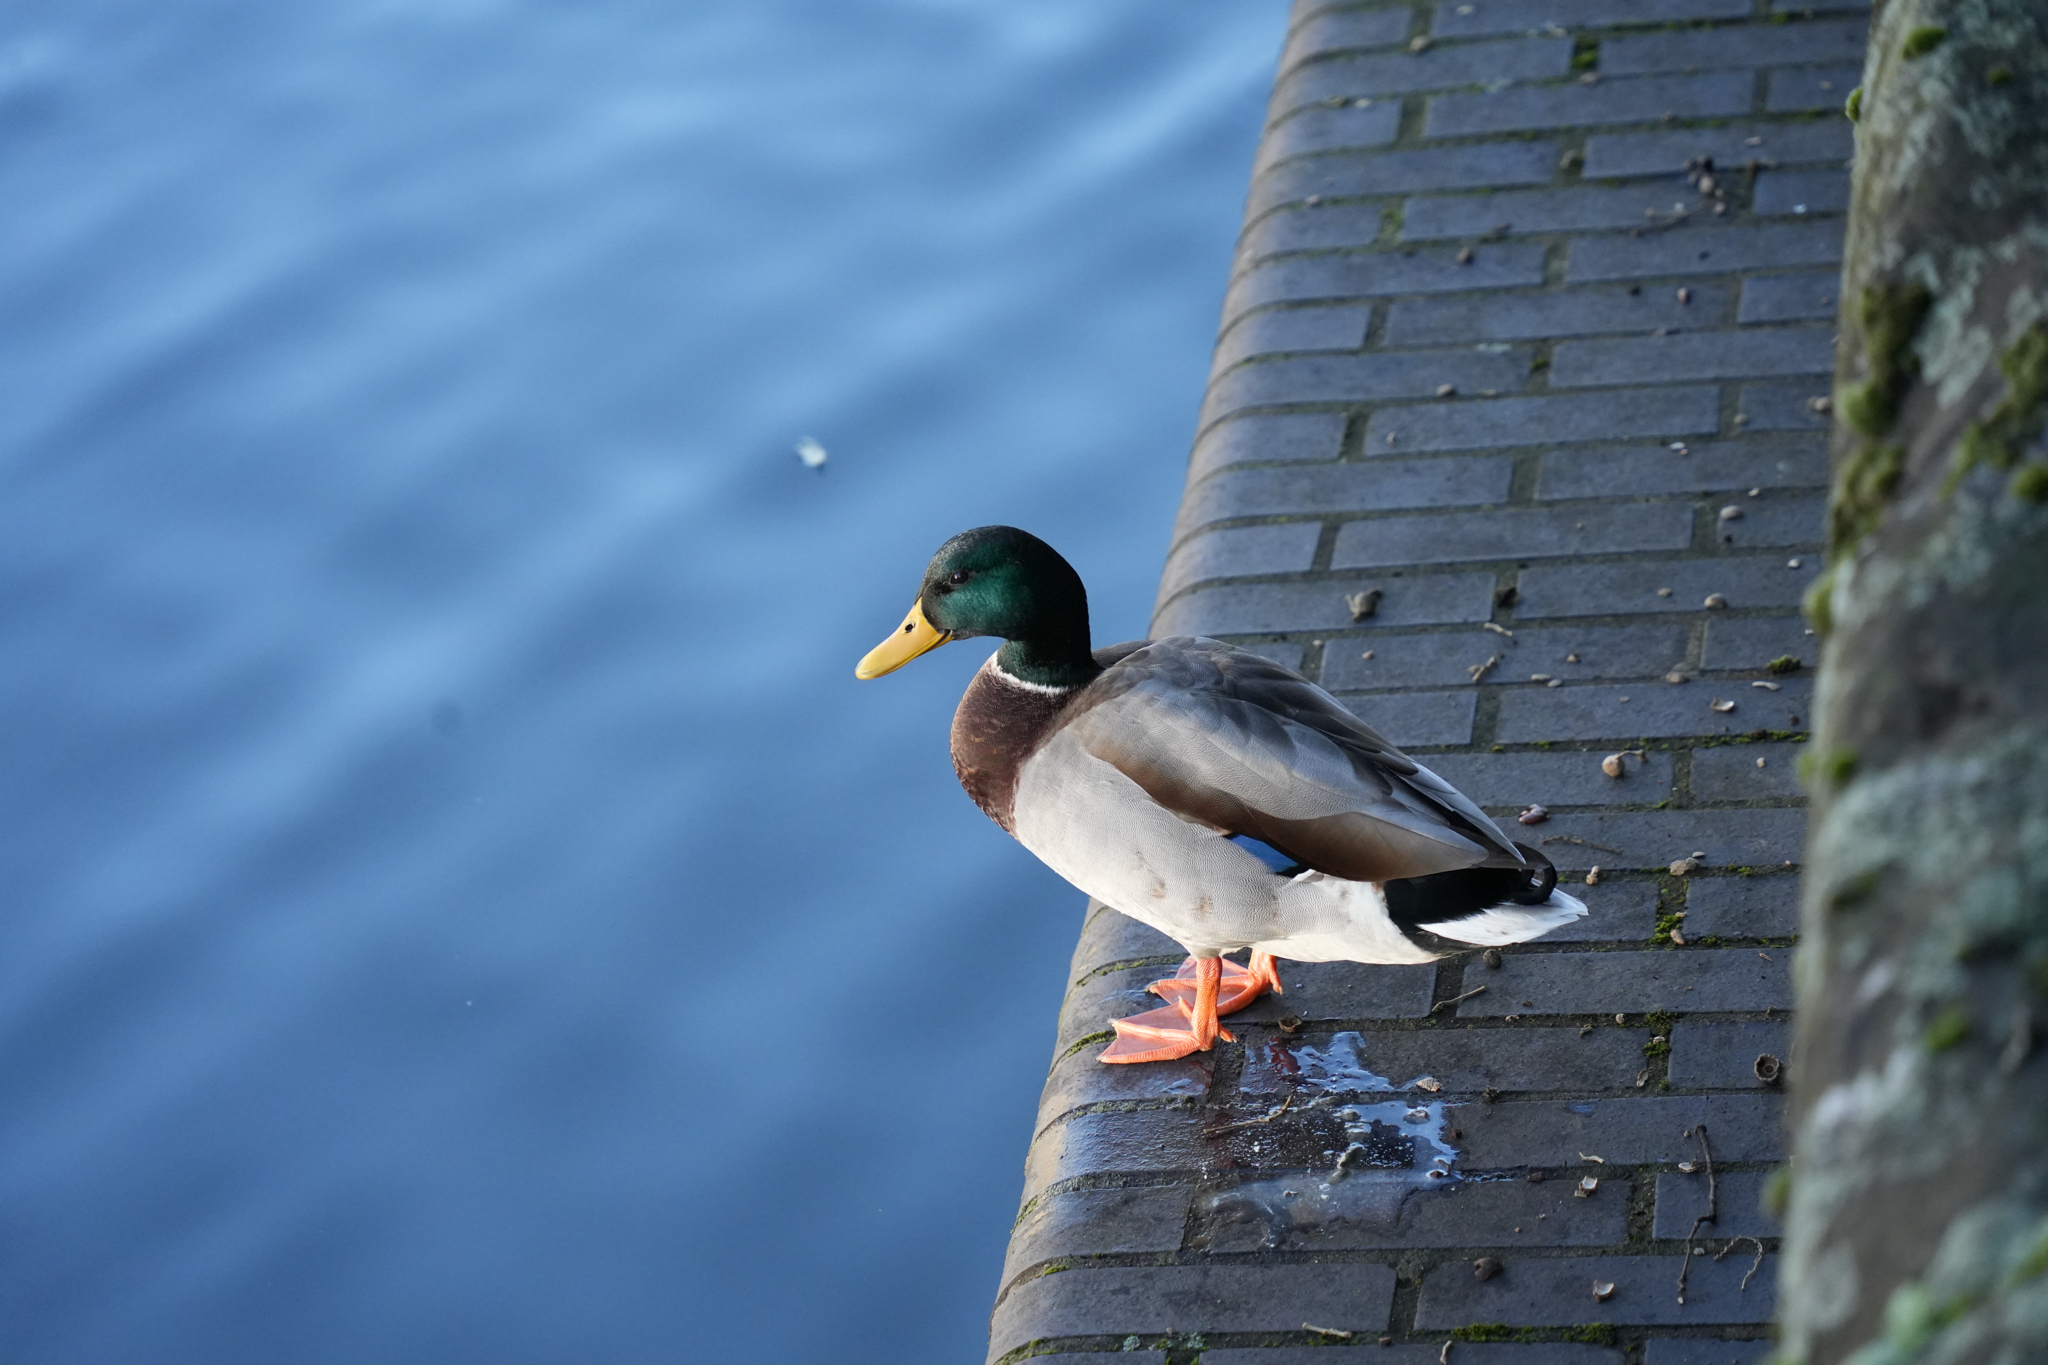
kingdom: Animalia
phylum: Chordata
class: Aves
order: Anseriformes
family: Anatidae
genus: Anas
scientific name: Anas platyrhynchos
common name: Mallard
